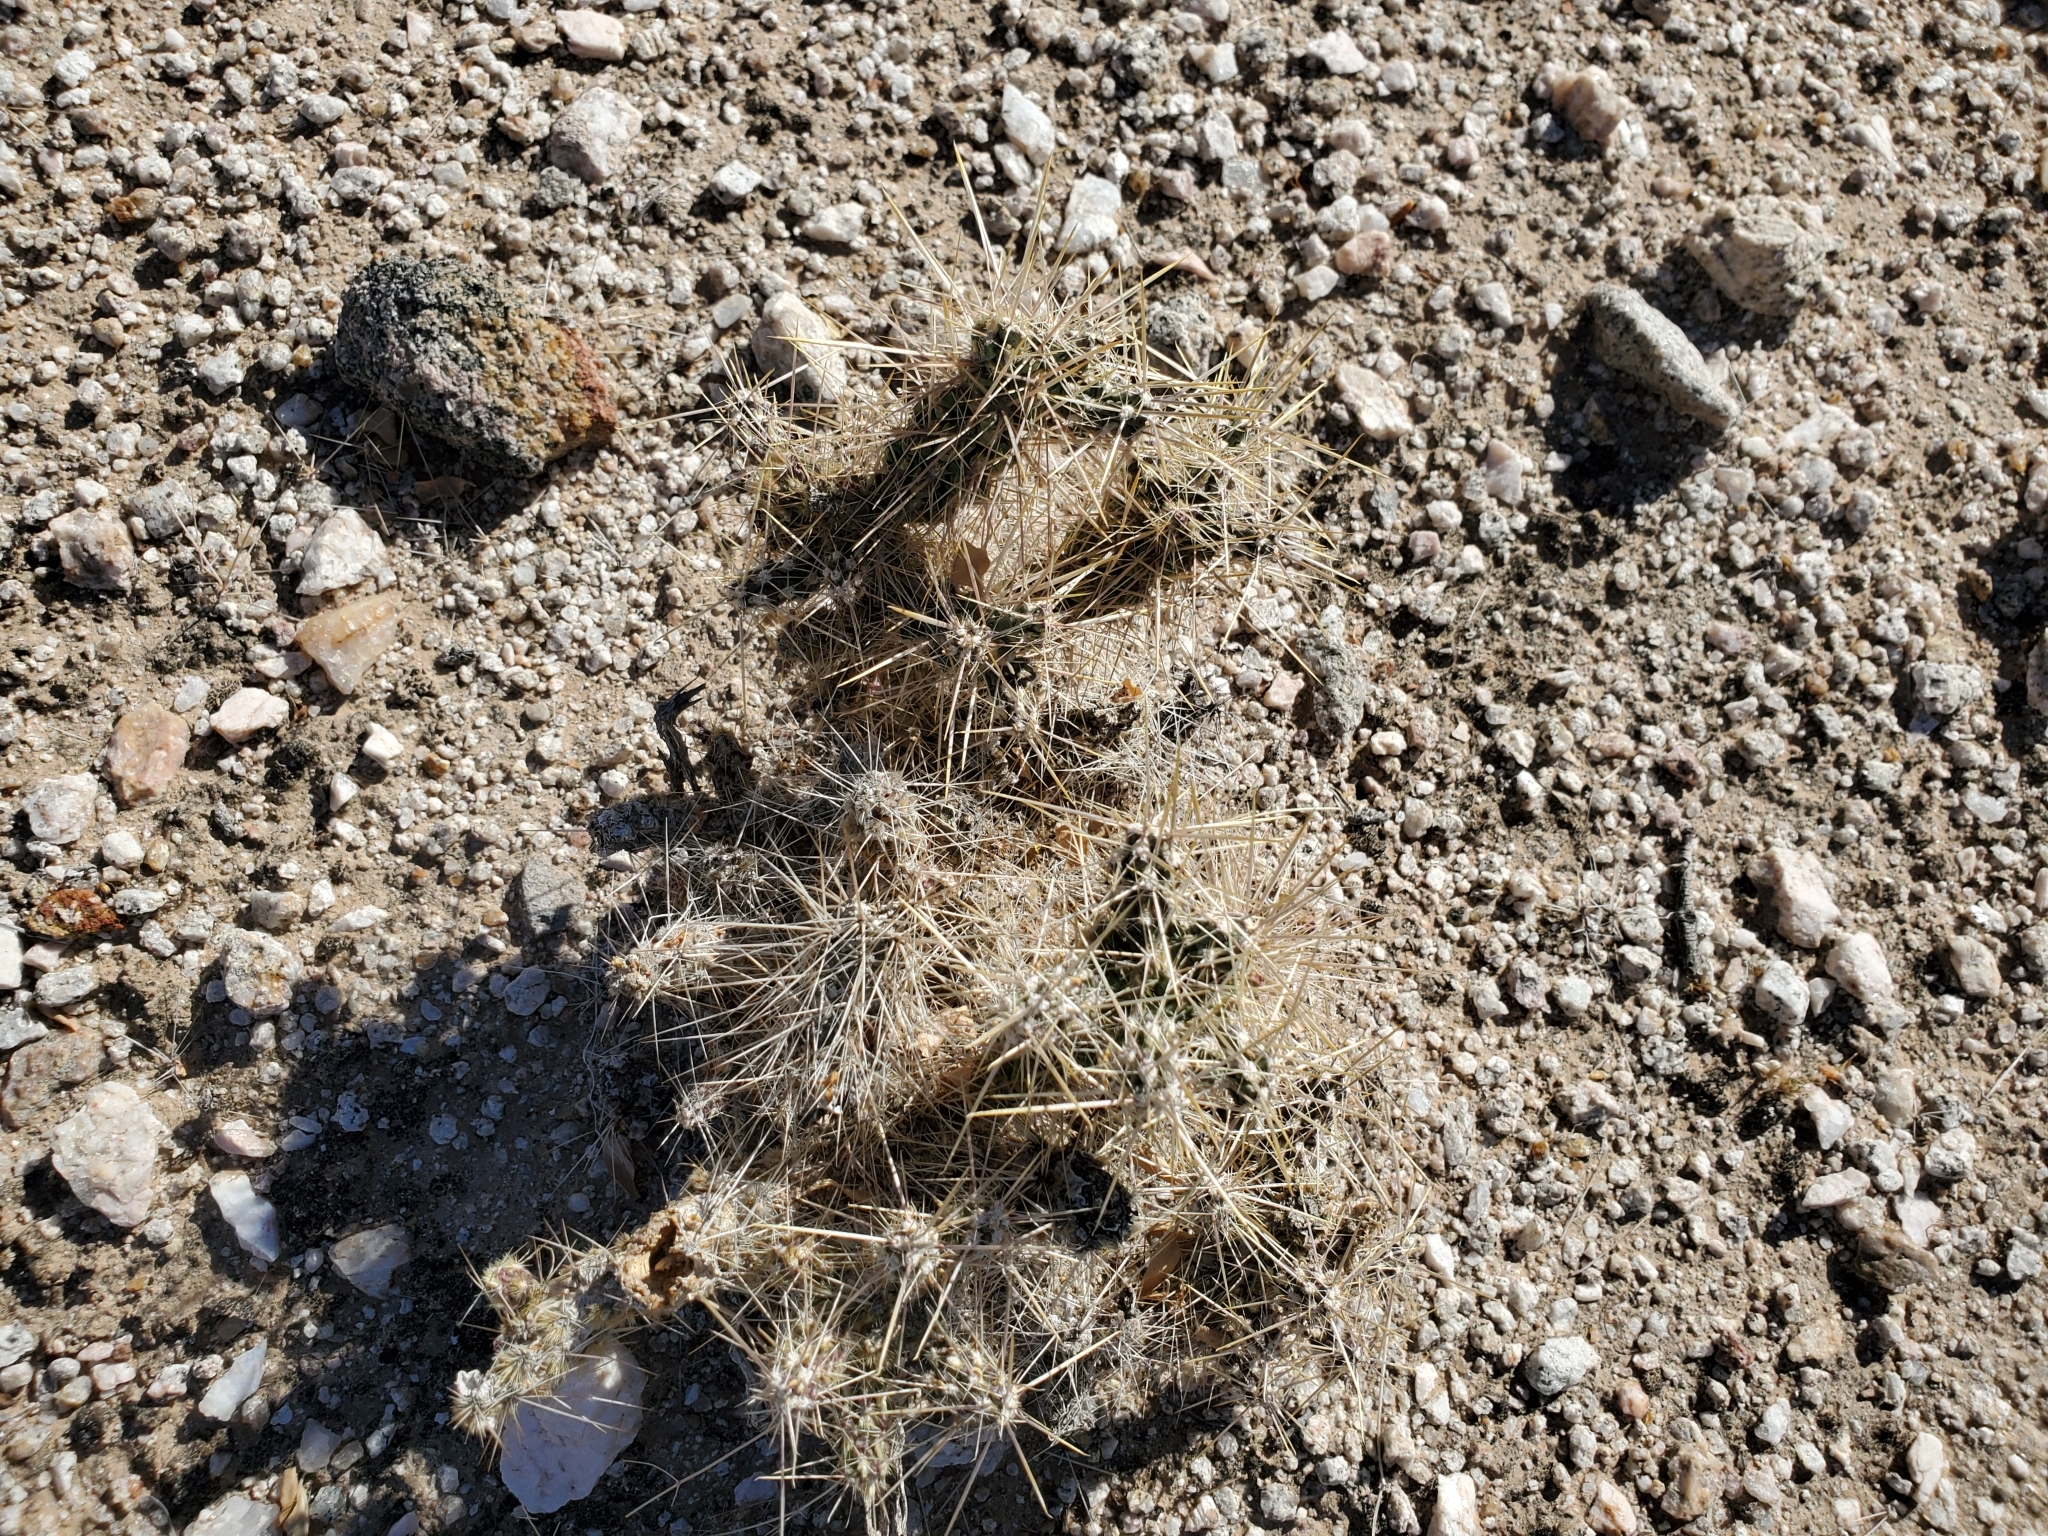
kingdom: Plantae
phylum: Tracheophyta
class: Magnoliopsida
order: Caryophyllales
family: Cactaceae
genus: Cylindropuntia
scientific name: Cylindropuntia echinocarpa
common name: Ground cholla
